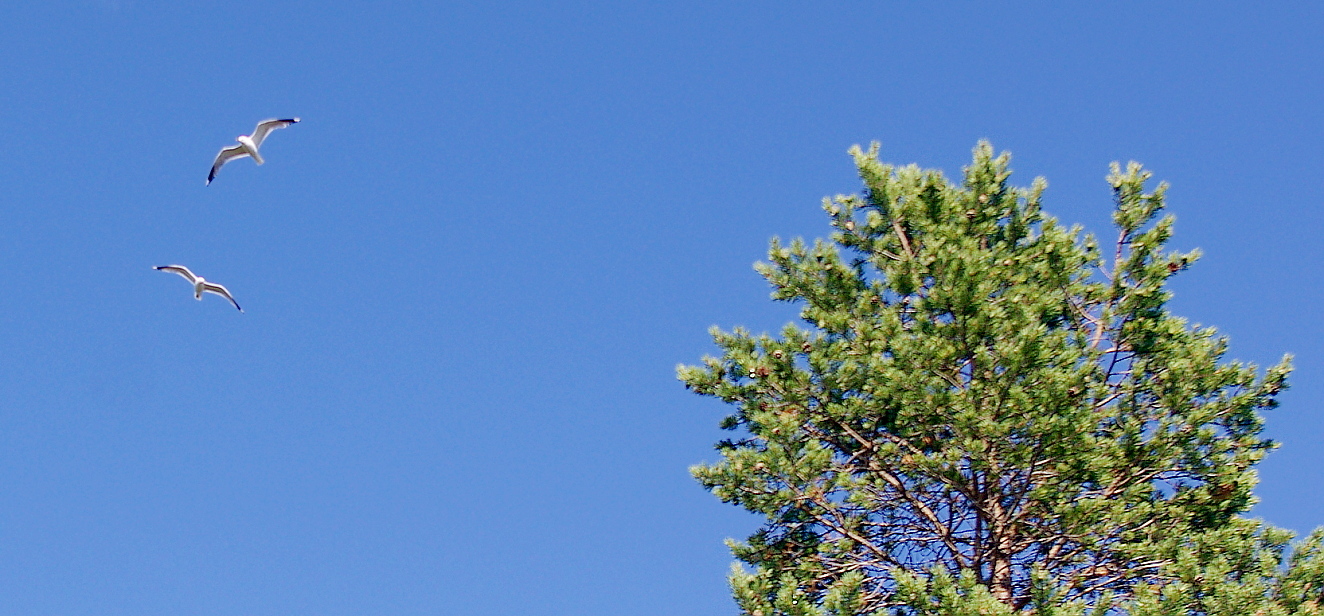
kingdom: Plantae
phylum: Tracheophyta
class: Pinopsida
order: Pinales
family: Pinaceae
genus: Pinus
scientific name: Pinus sylvestris
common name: Scots pine
